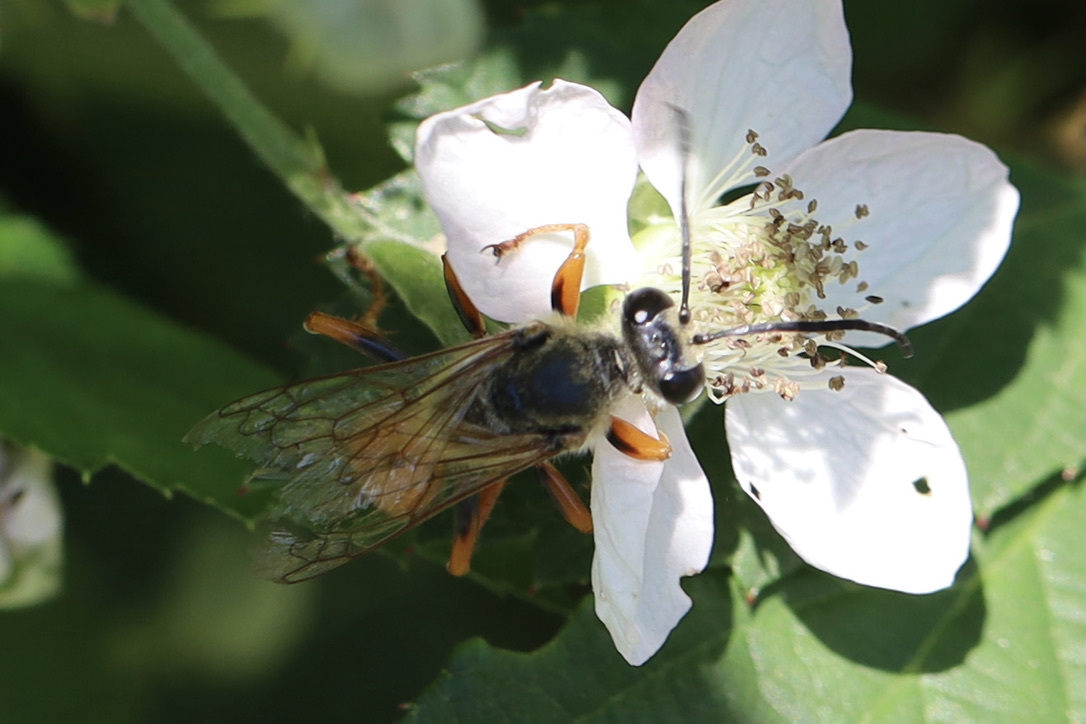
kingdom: Animalia
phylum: Arthropoda
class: Insecta
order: Hymenoptera
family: Sphecidae
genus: Sphex
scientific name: Sphex ichneumoneus
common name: Great golden digger wasp
